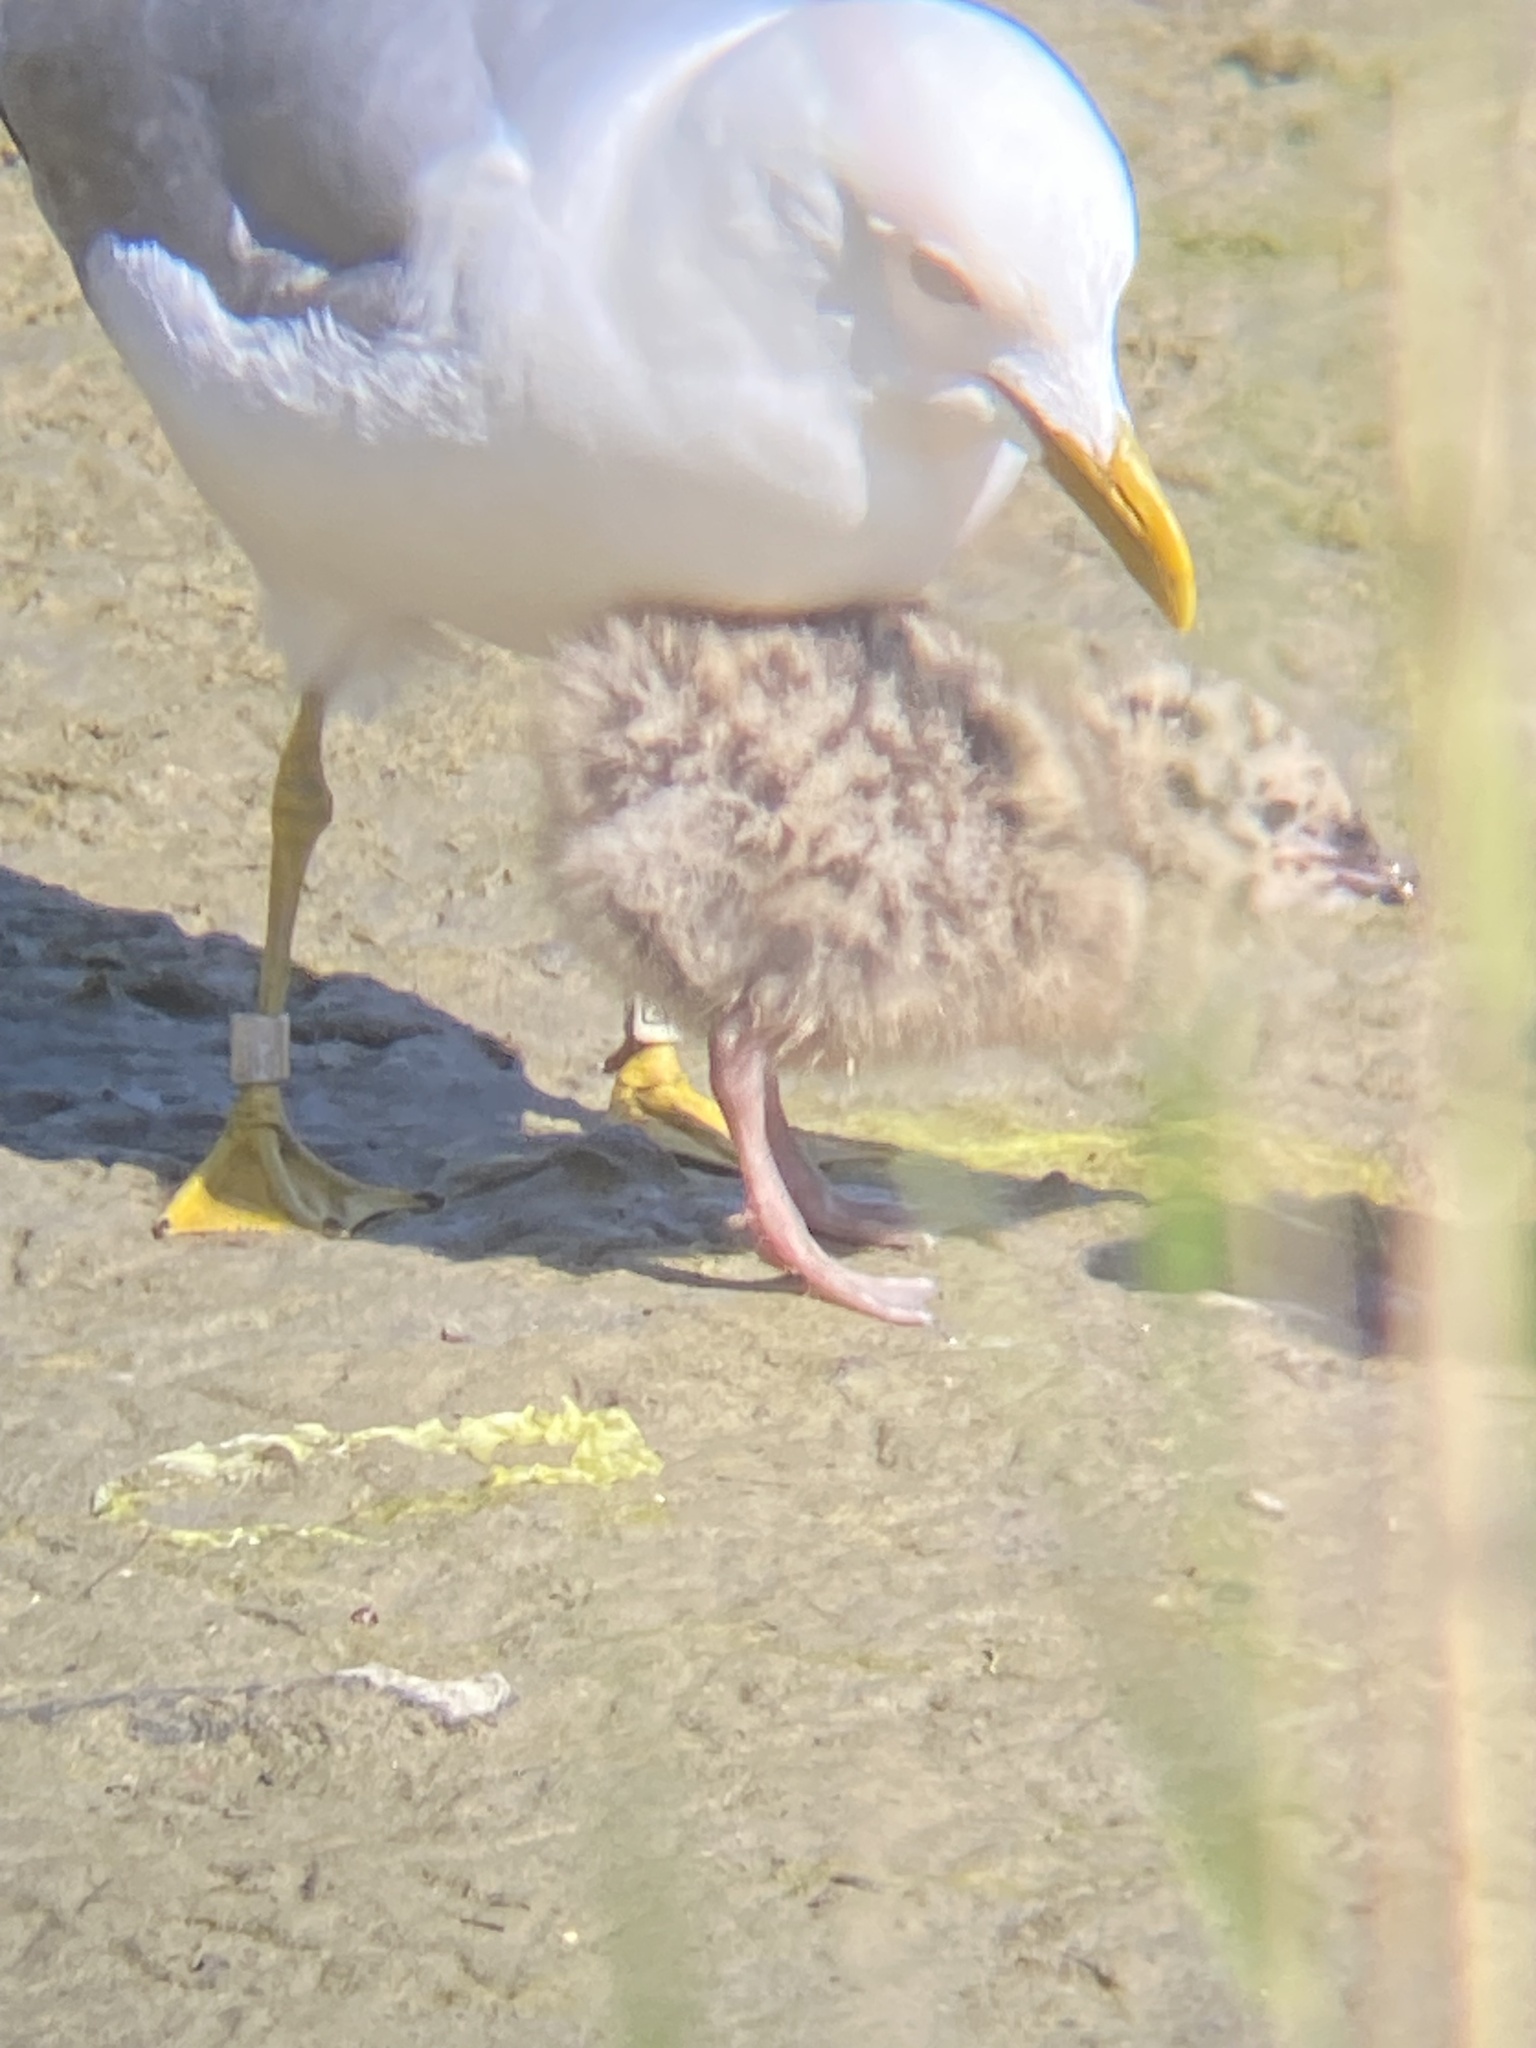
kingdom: Animalia
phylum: Chordata
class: Aves
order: Charadriiformes
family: Laridae
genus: Larus
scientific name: Larus canus
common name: Mew gull
